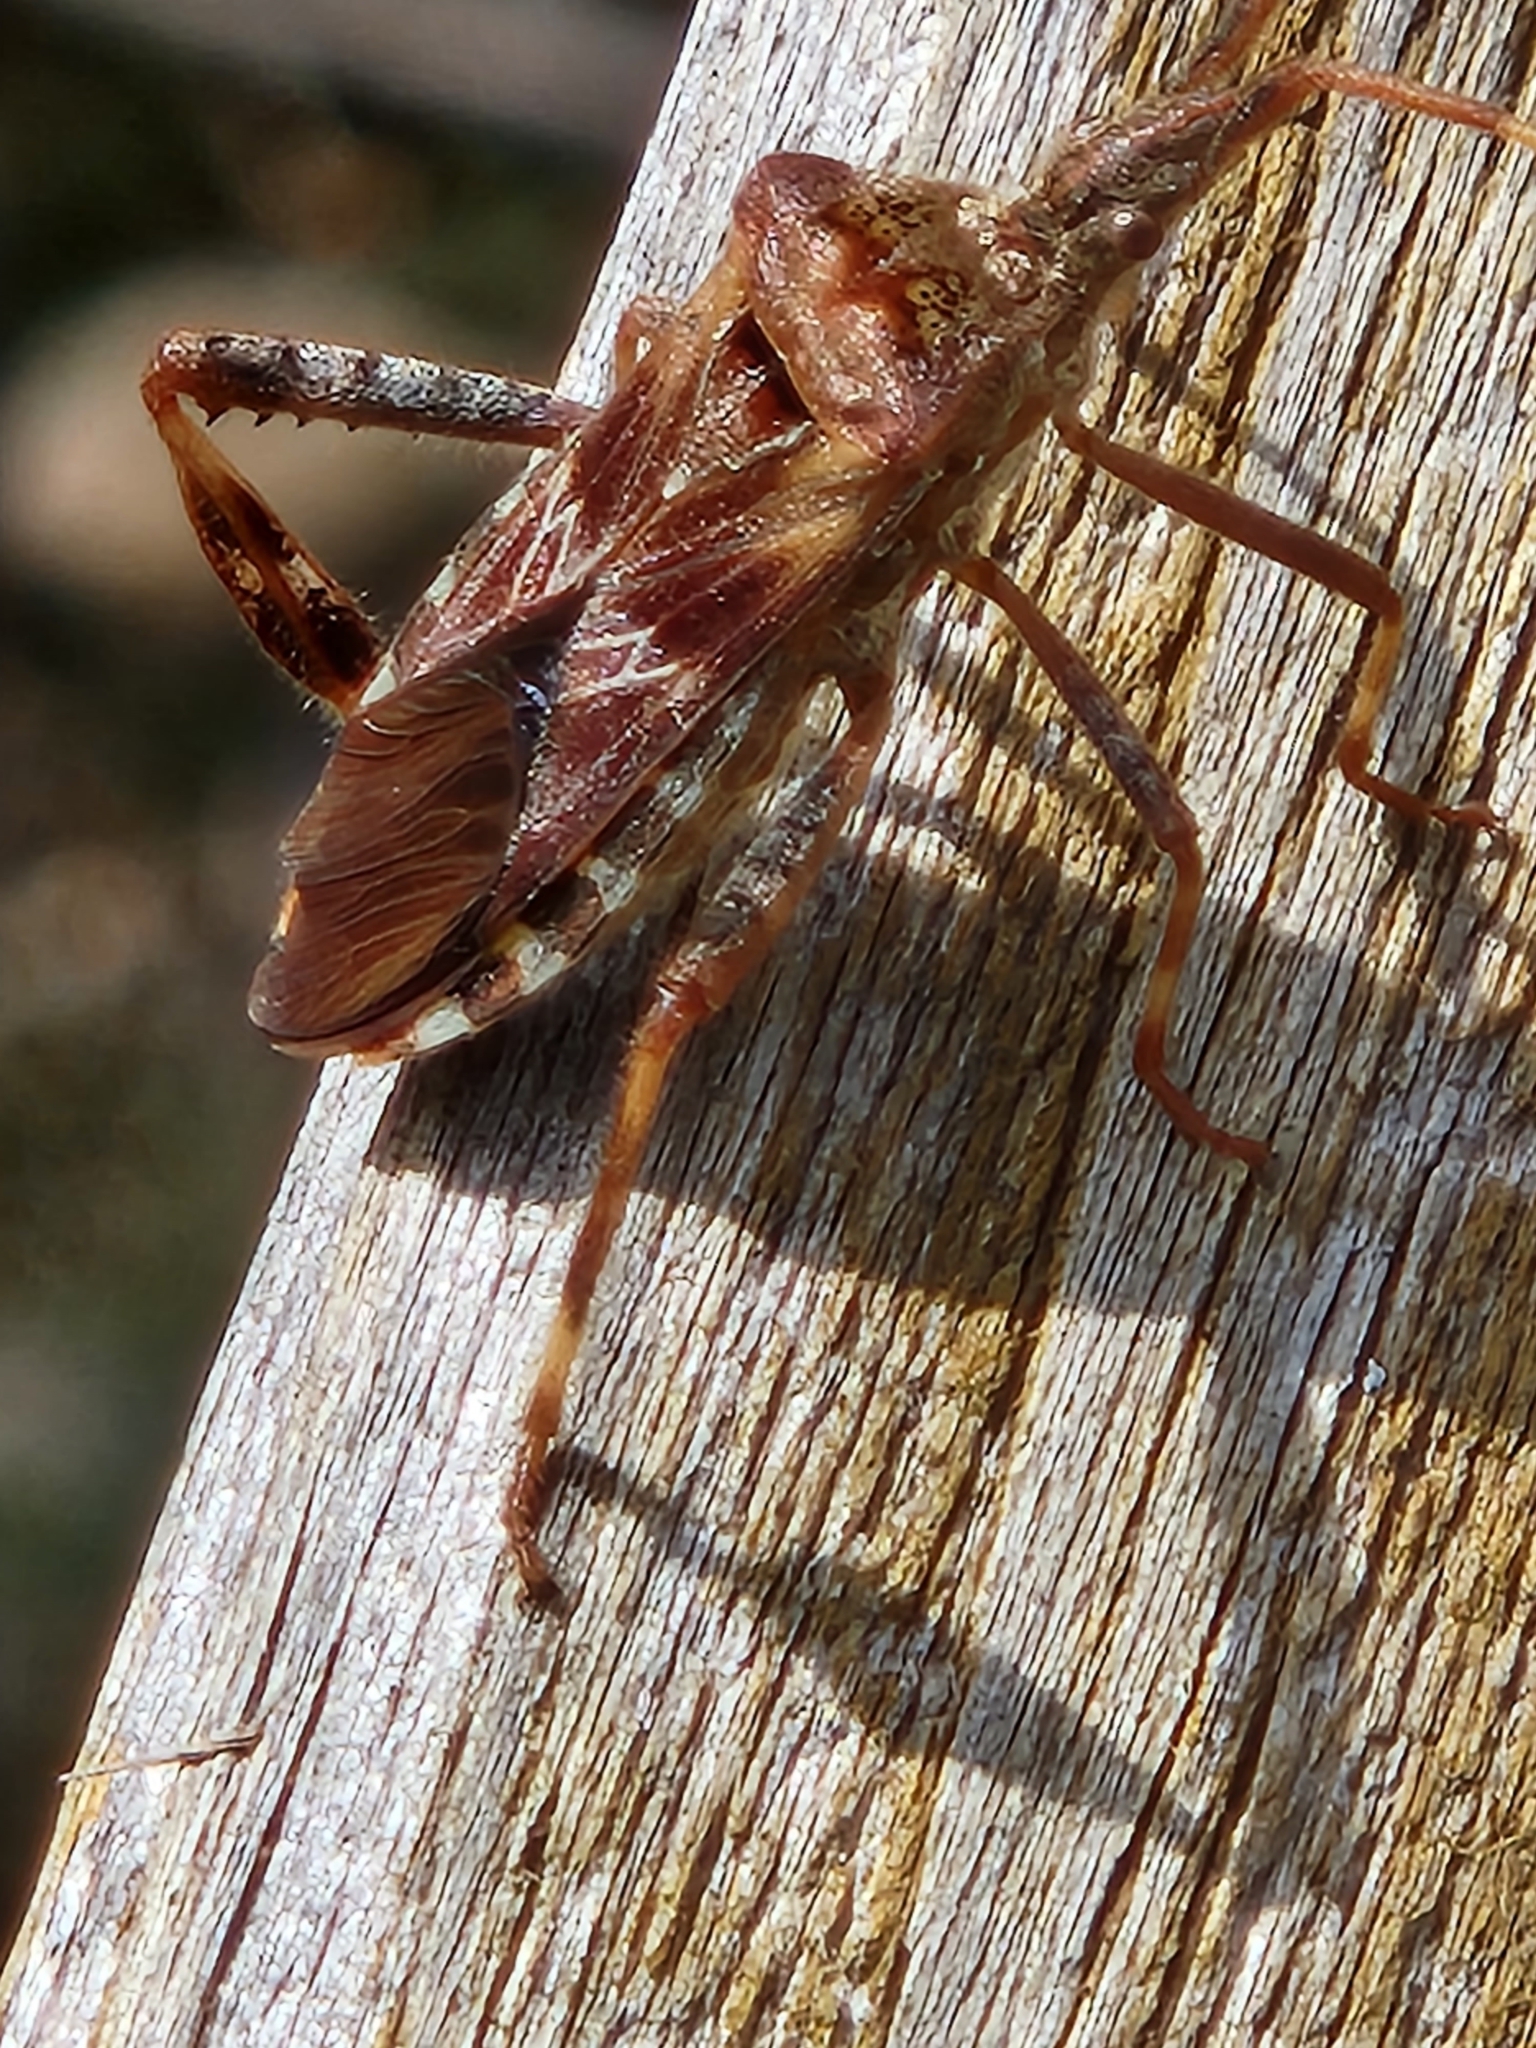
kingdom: Animalia
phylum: Arthropoda
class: Insecta
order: Hemiptera
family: Coreidae
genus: Leptoglossus
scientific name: Leptoglossus occidentalis
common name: Western conifer-seed bug
